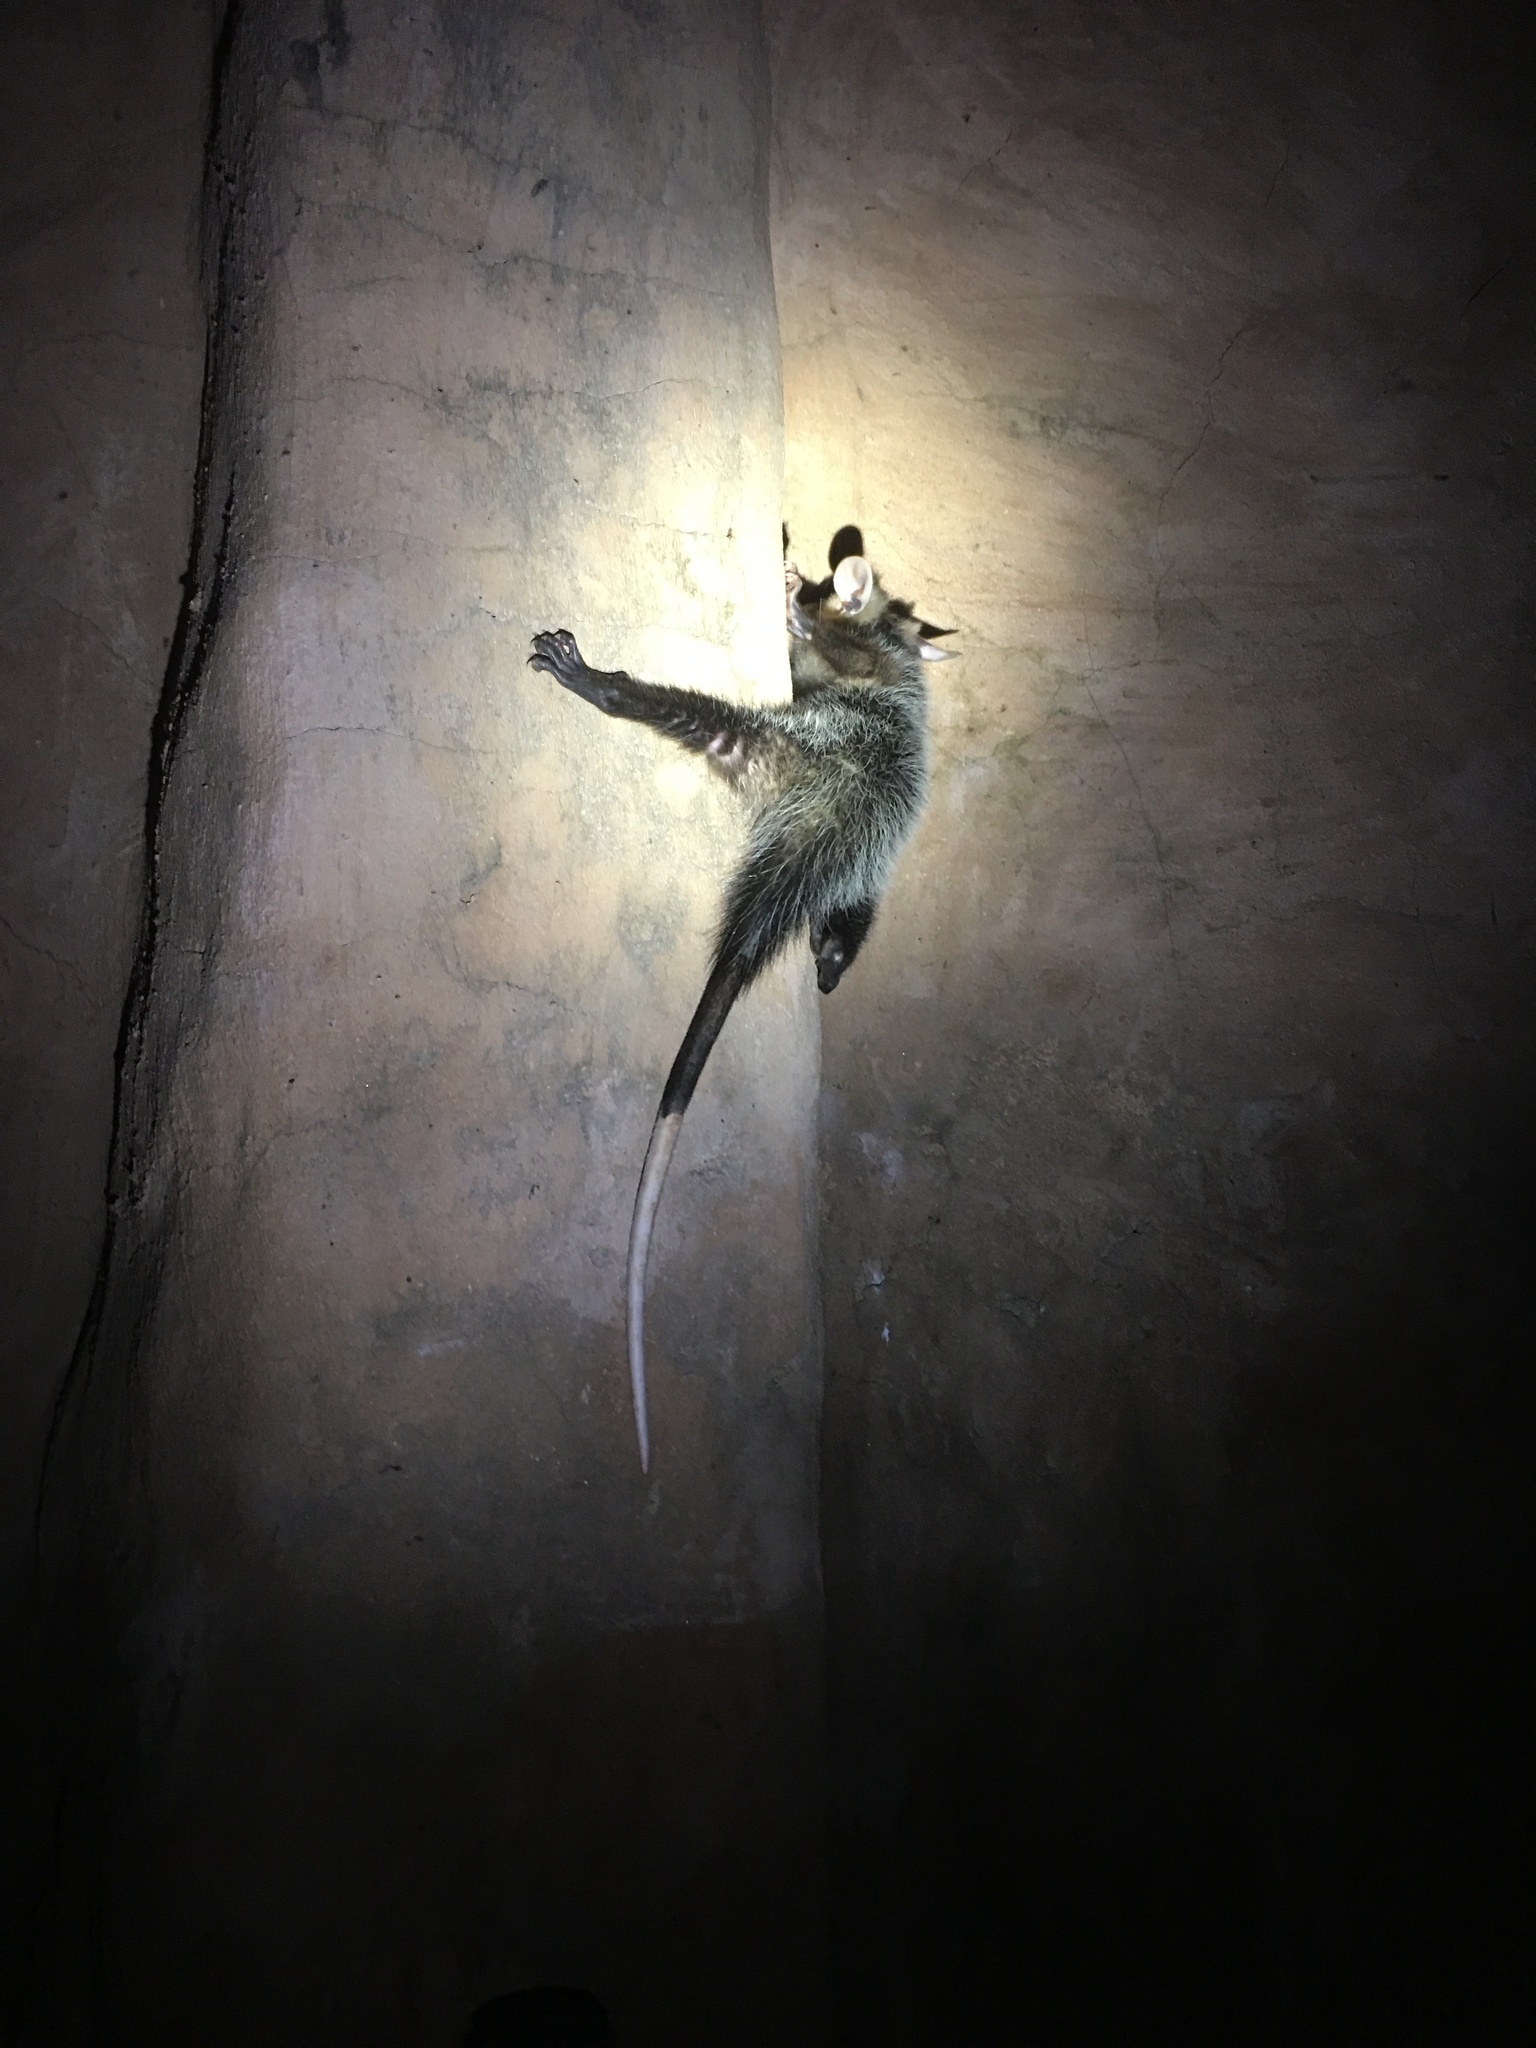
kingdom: Animalia
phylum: Chordata
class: Mammalia
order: Didelphimorphia
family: Didelphidae
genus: Didelphis
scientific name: Didelphis albiventris
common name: White-eared opossum
